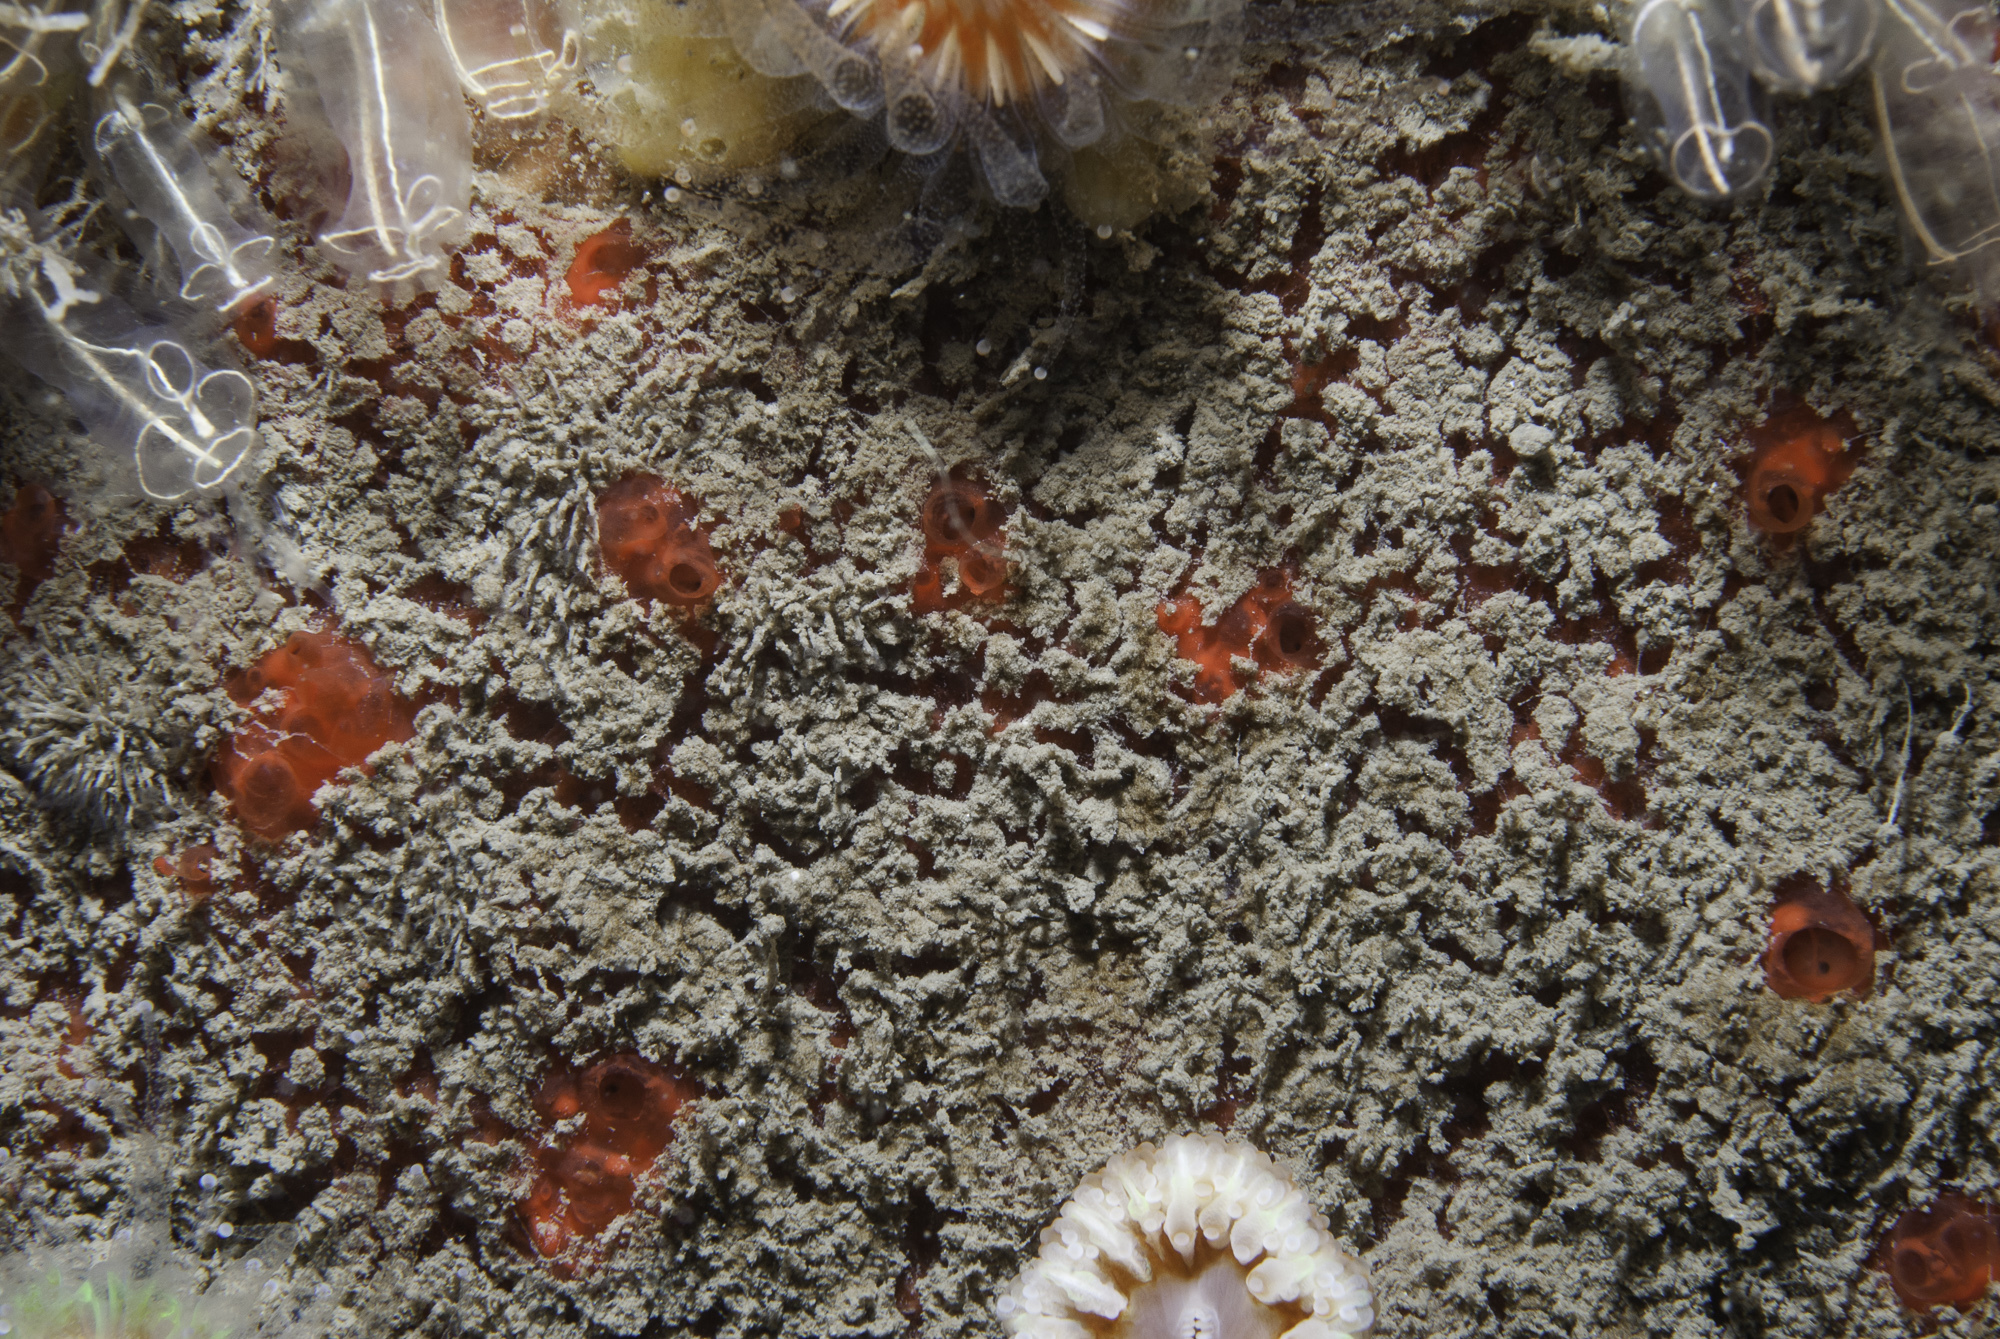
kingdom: Animalia
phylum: Porifera
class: Demospongiae
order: Axinellida
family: Raspailiidae
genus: Eurypon
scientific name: Eurypon major
